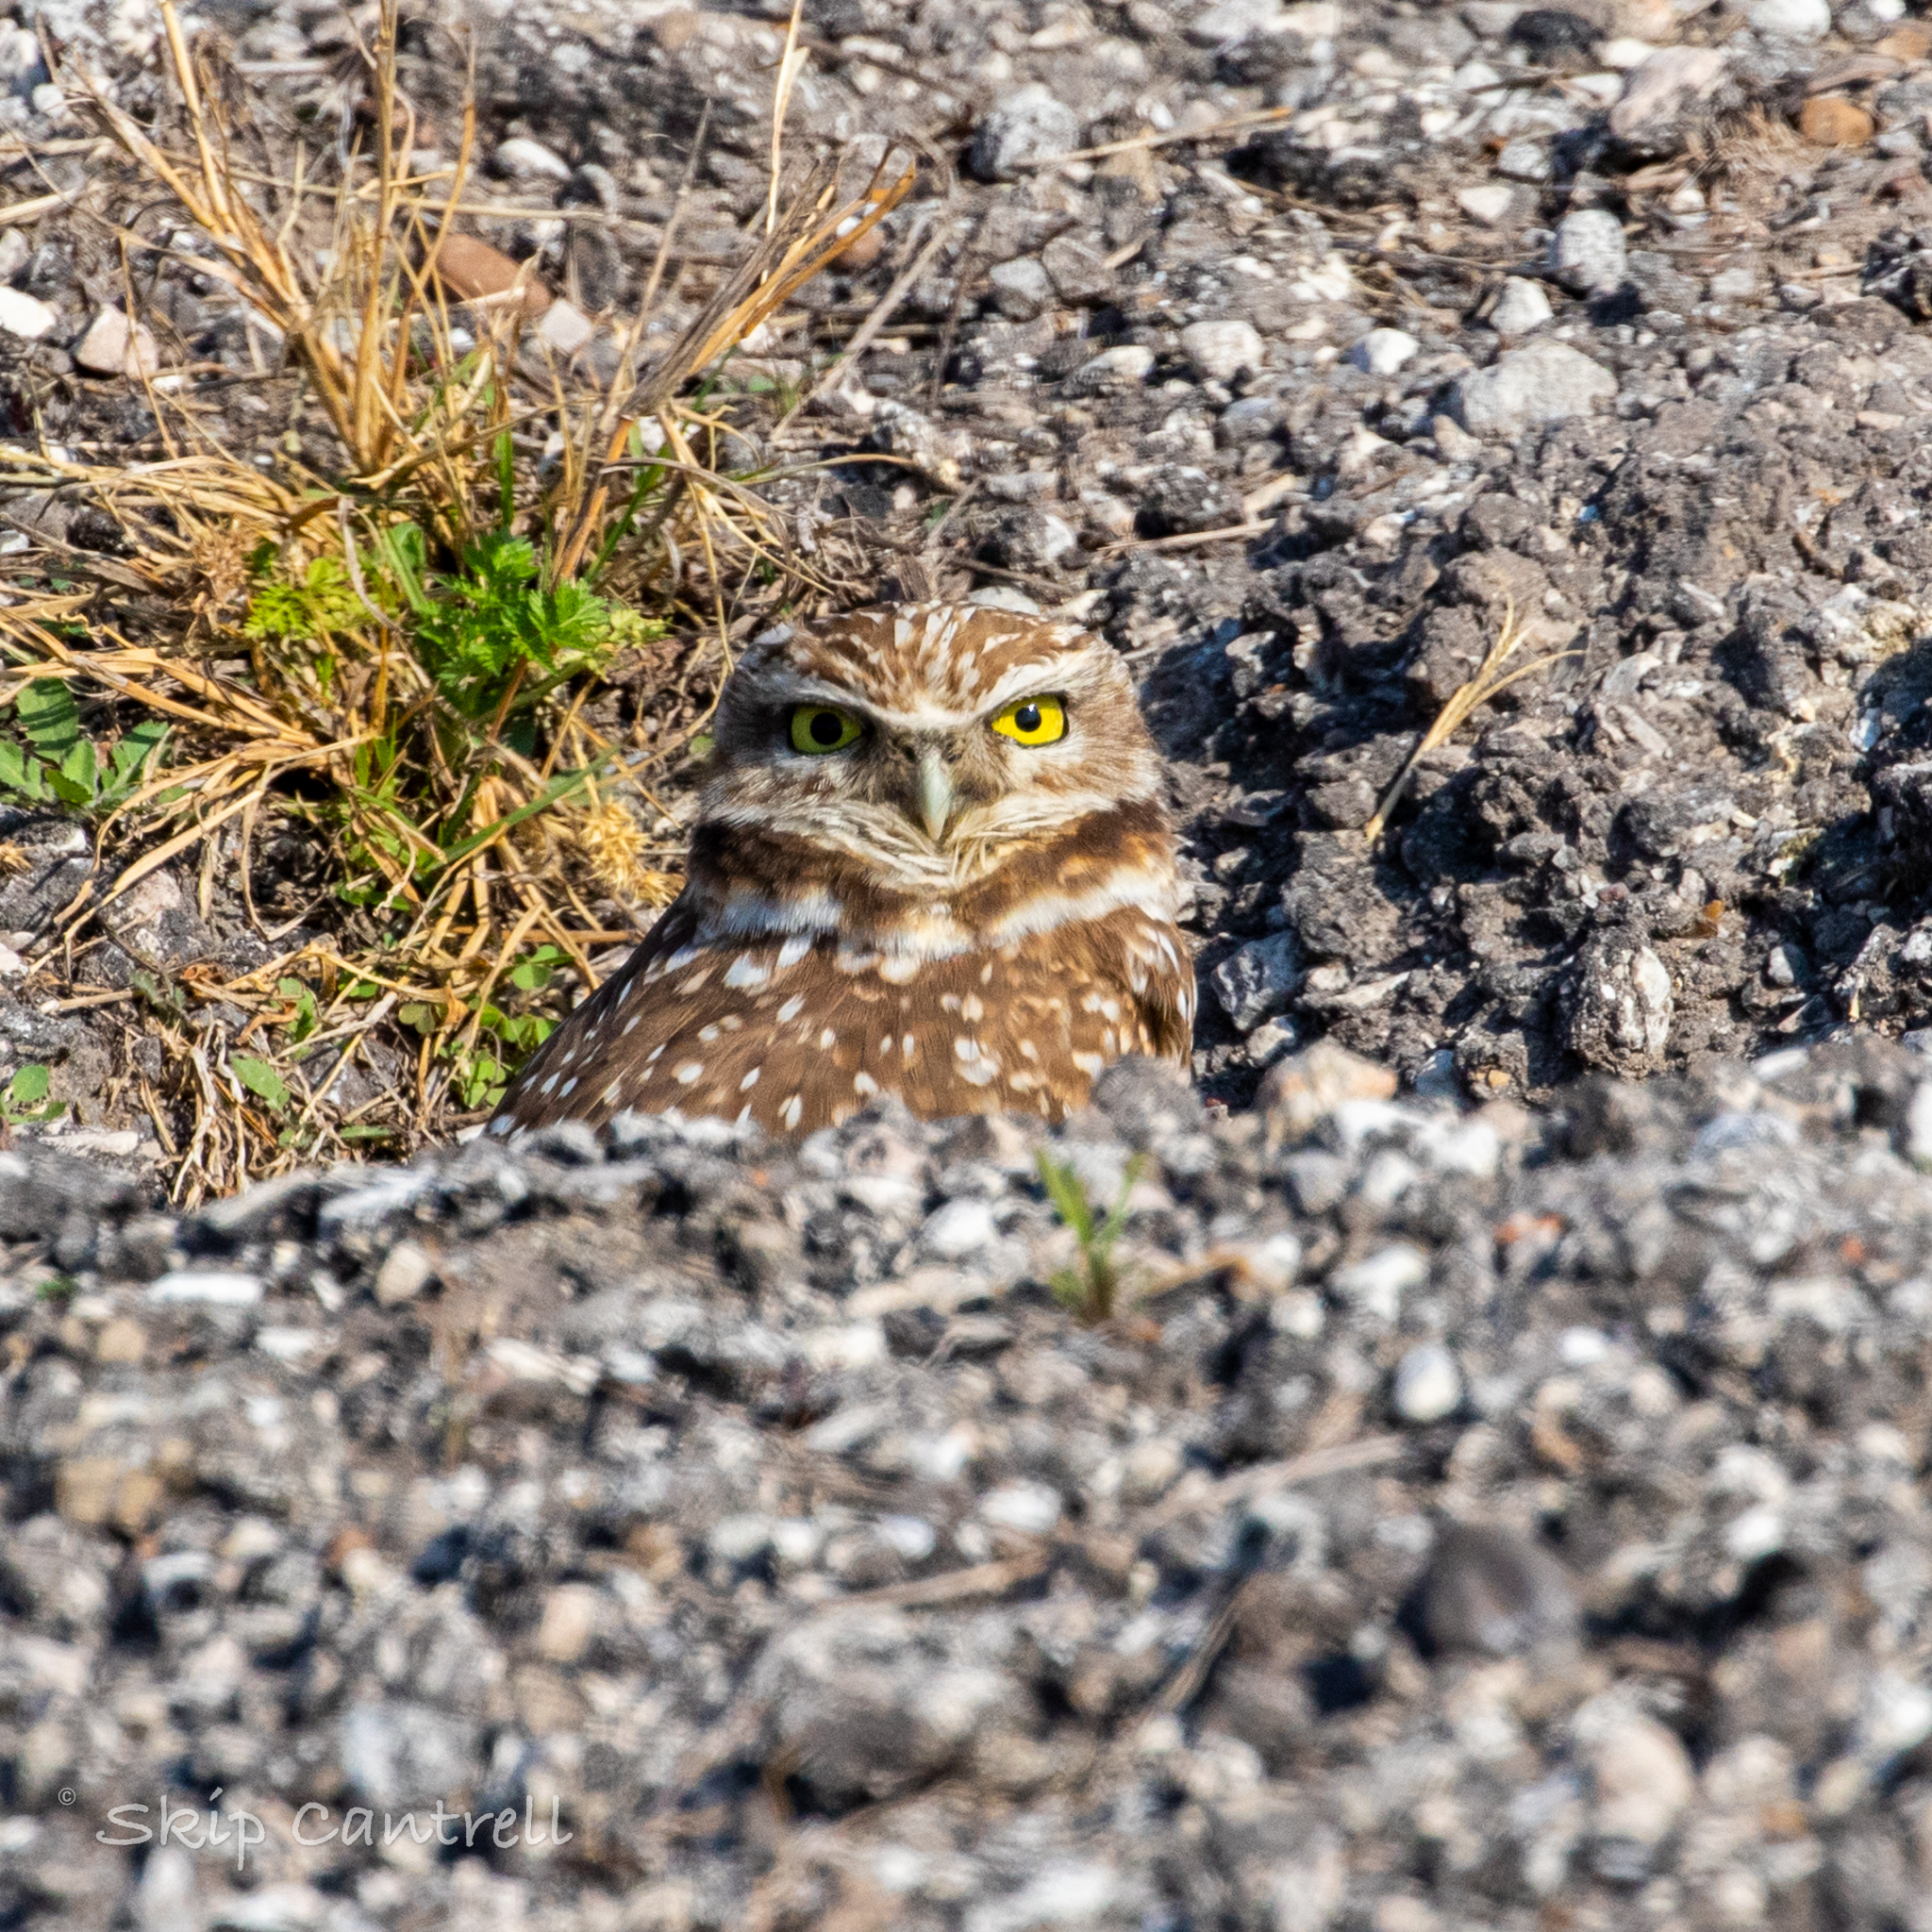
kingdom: Animalia
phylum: Chordata
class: Aves
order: Strigiformes
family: Strigidae
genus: Athene
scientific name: Athene cunicularia
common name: Burrowing owl
